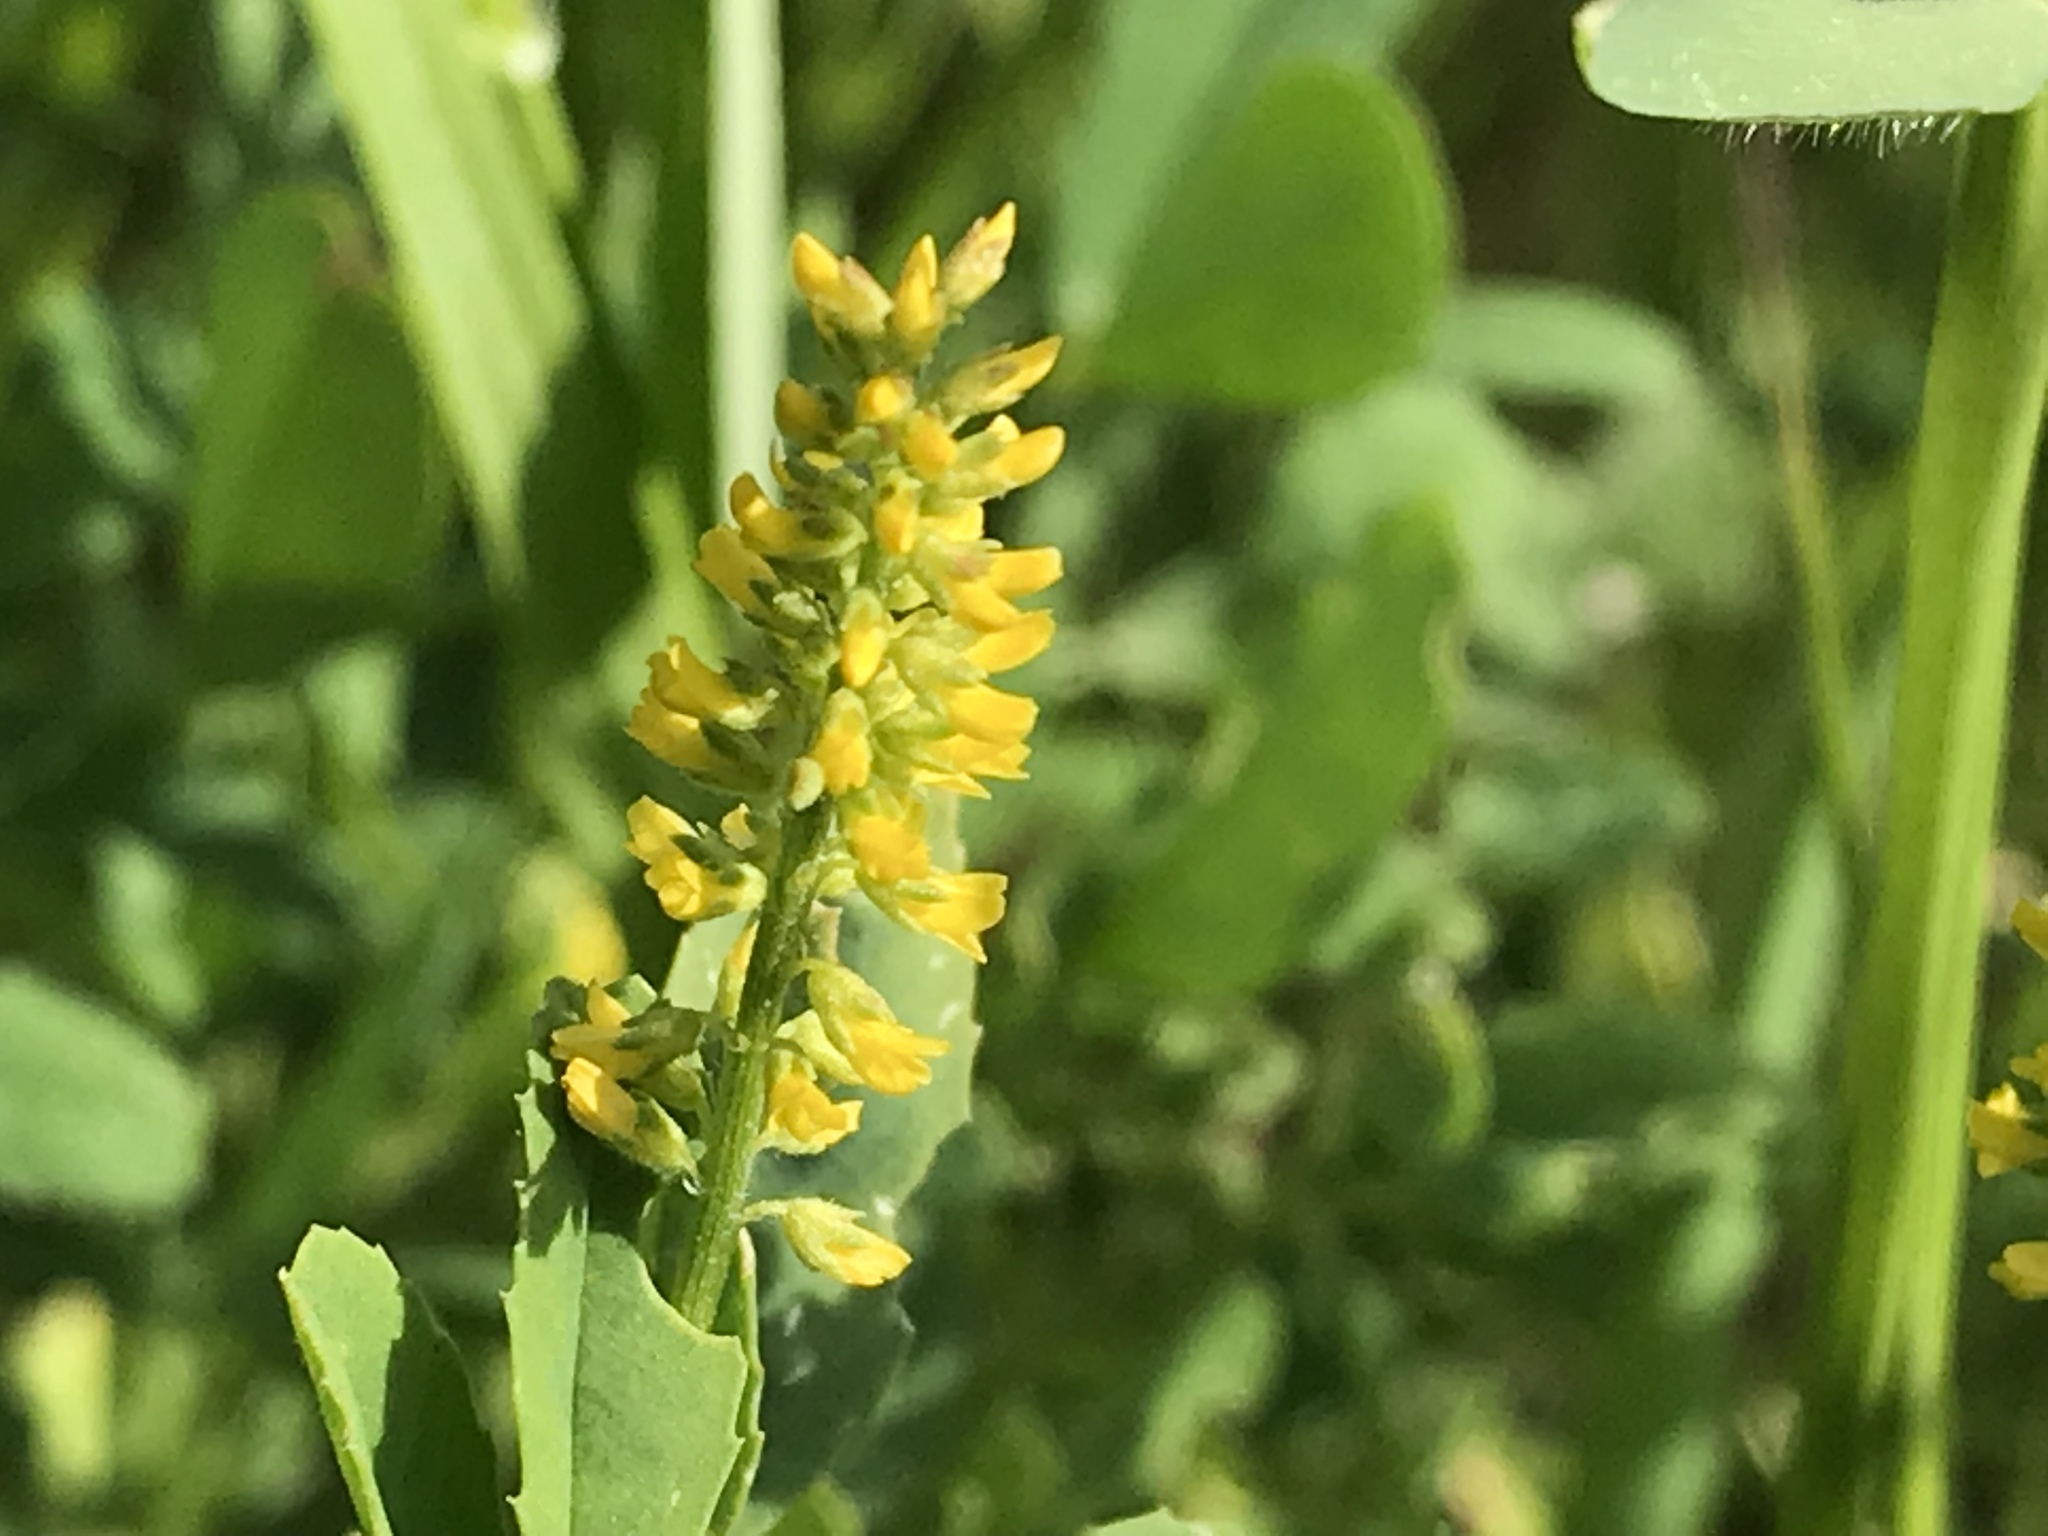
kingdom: Plantae
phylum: Tracheophyta
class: Magnoliopsida
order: Fabales
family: Fabaceae
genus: Melilotus
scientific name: Melilotus indicus
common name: Small melilot
